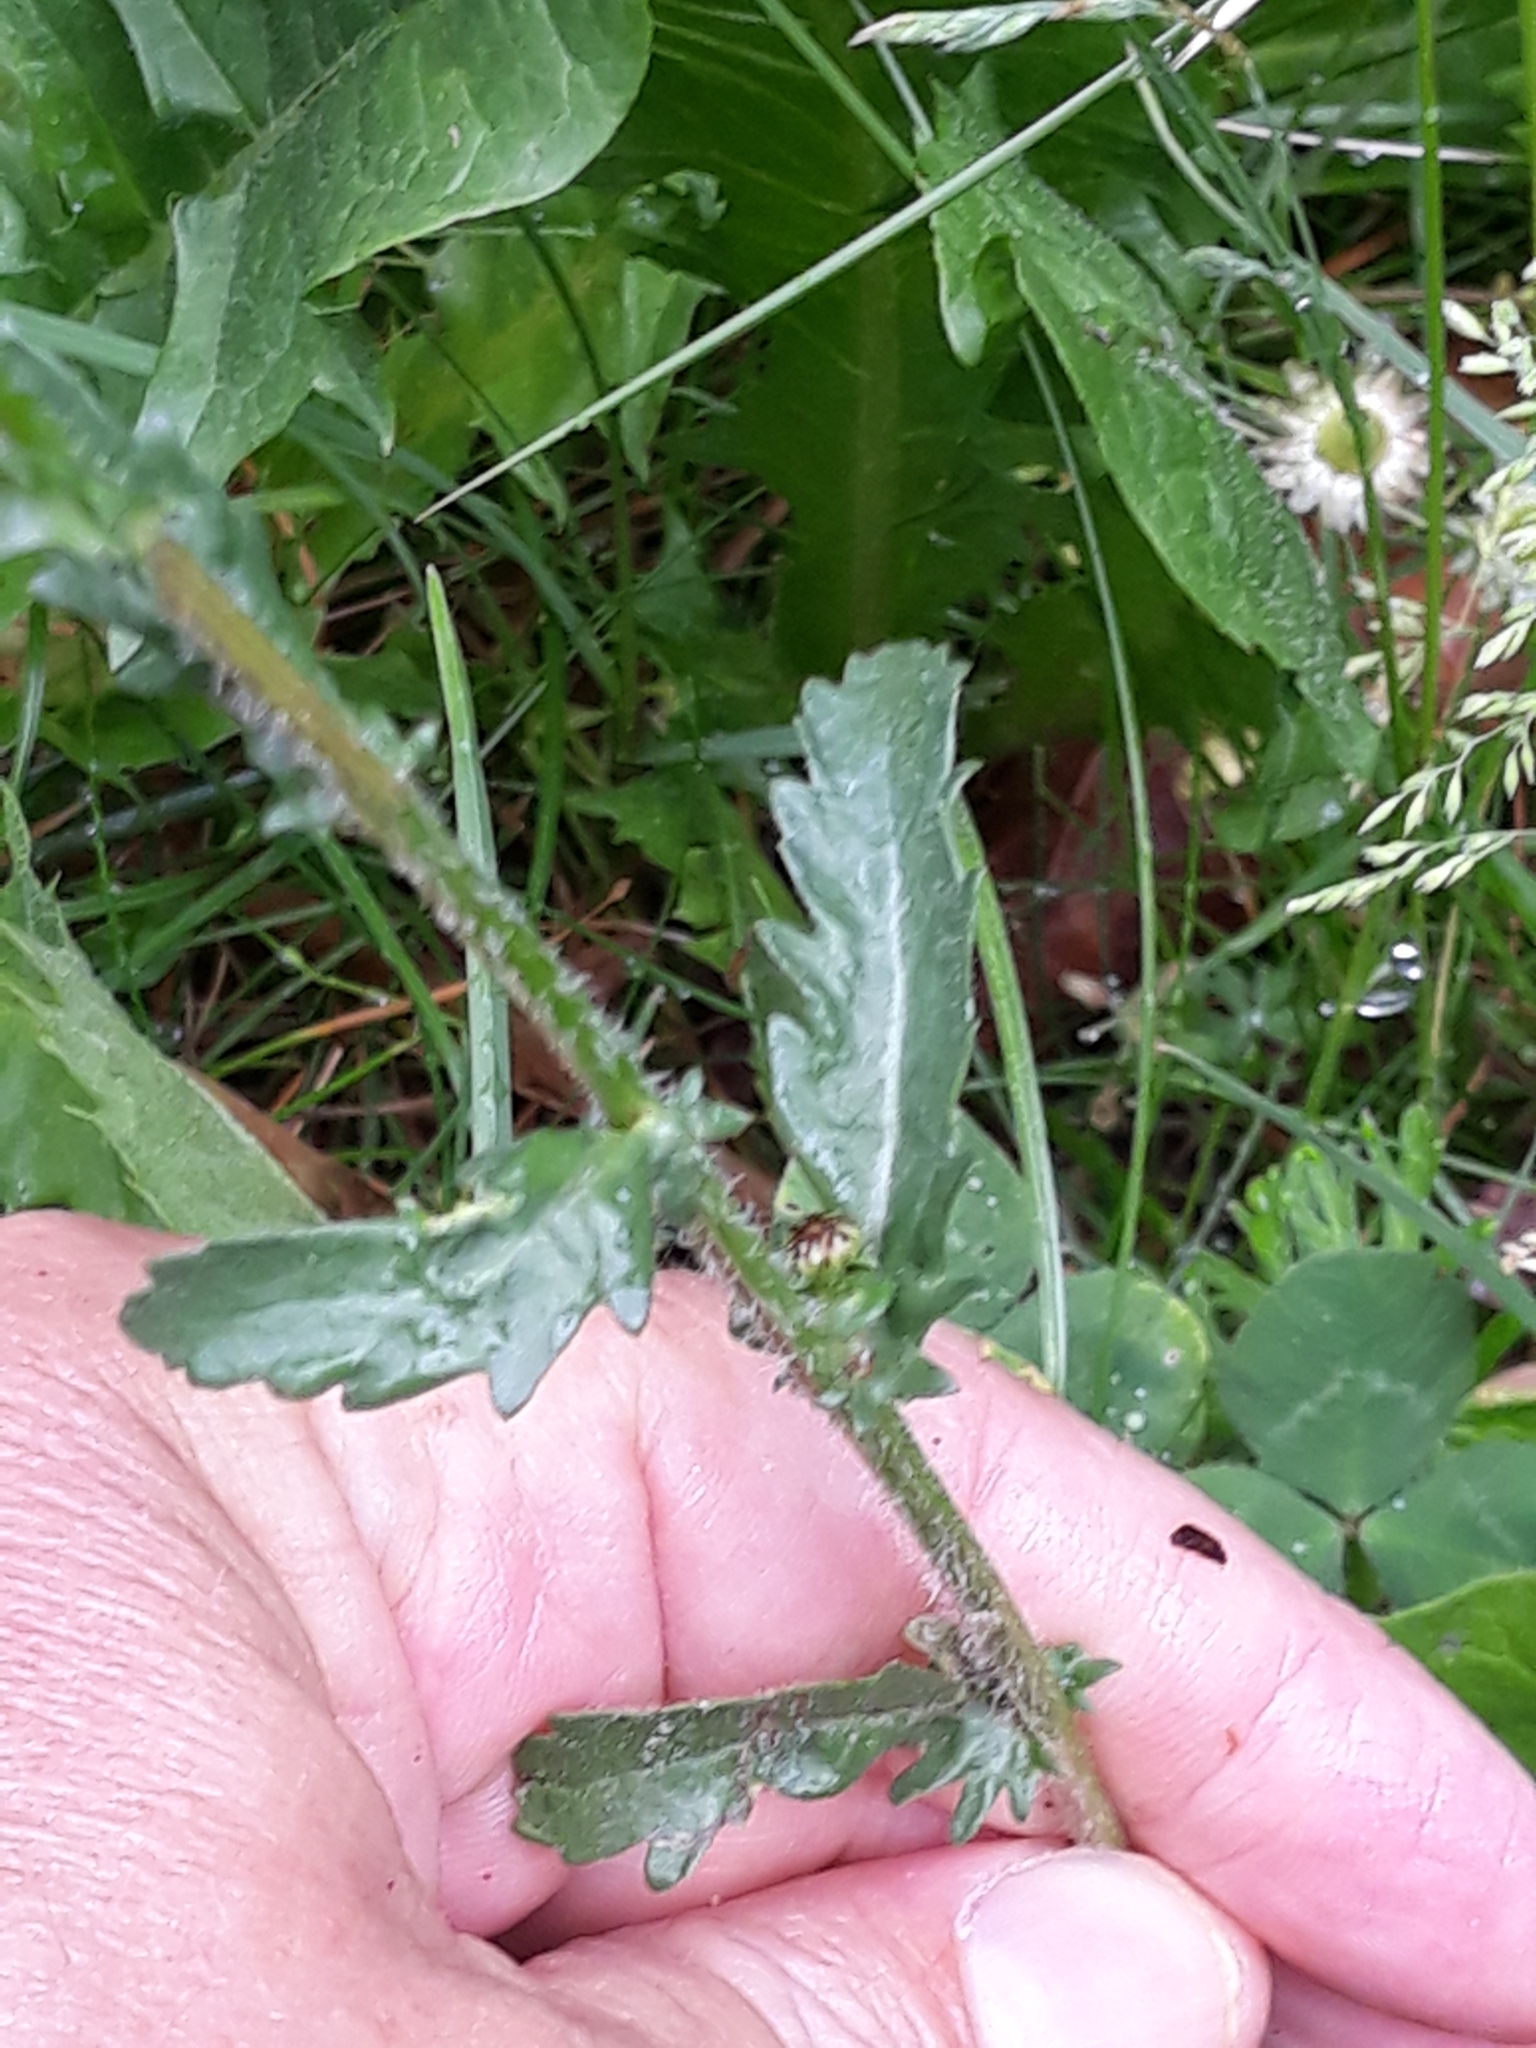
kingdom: Plantae
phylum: Tracheophyta
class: Magnoliopsida
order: Asterales
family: Asteraceae
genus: Leucanthemum
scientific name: Leucanthemum ircutianum
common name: Daisy
